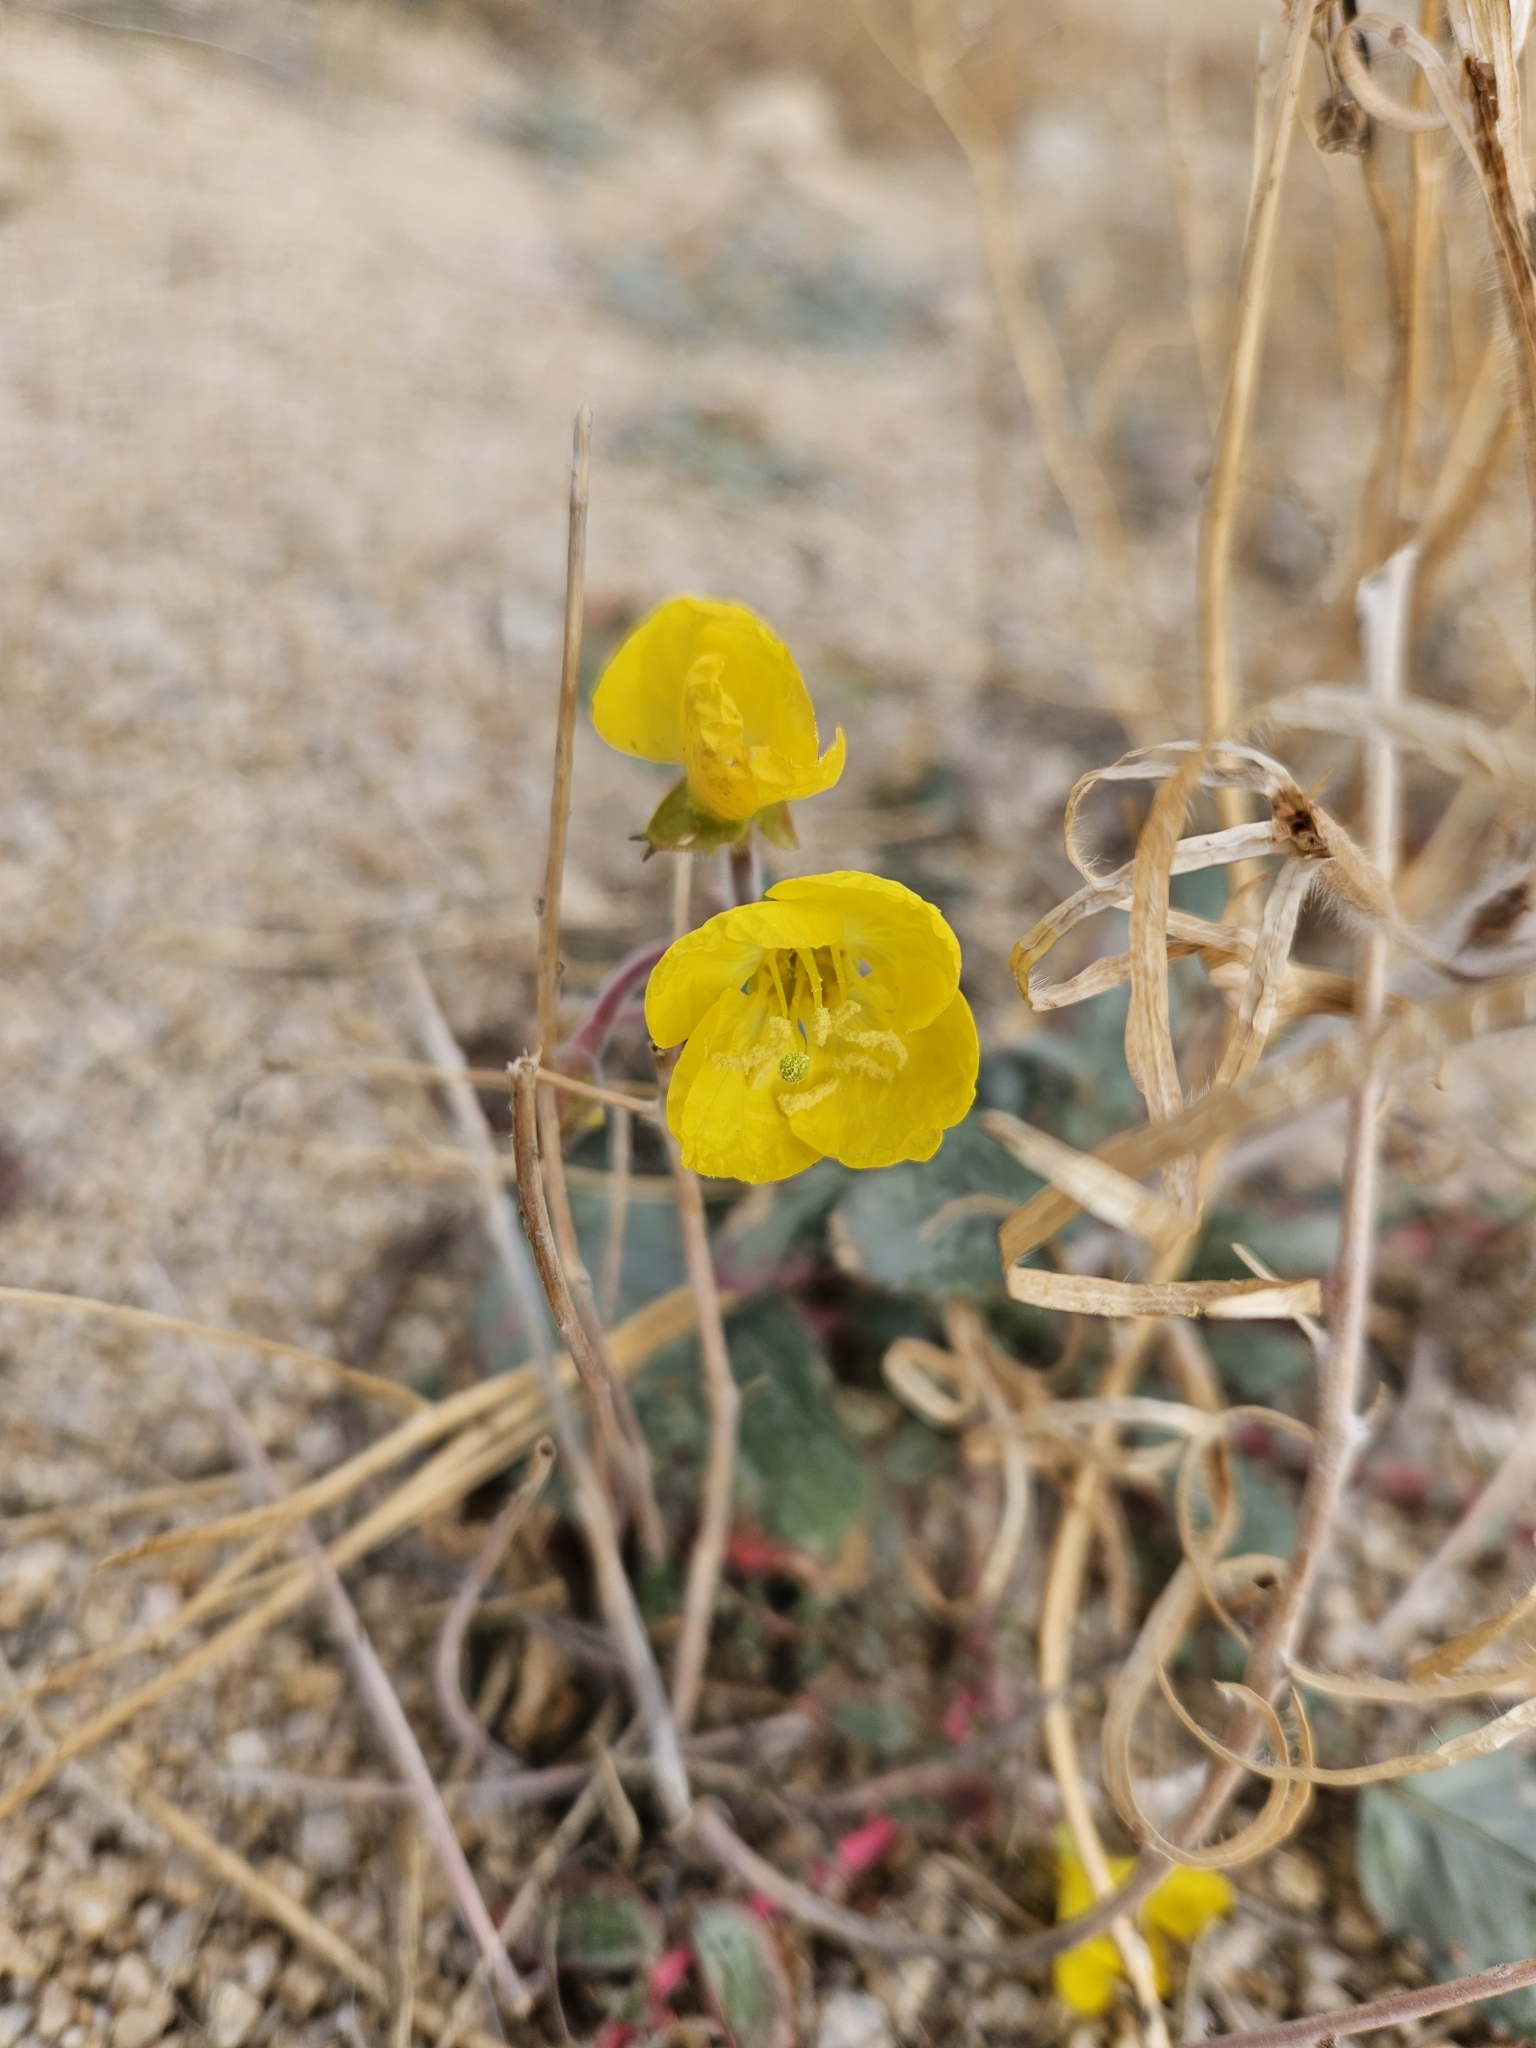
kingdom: Plantae
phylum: Tracheophyta
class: Magnoliopsida
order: Myrtales
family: Onagraceae
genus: Chylismia
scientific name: Chylismia brevipes
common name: Yellow cups
